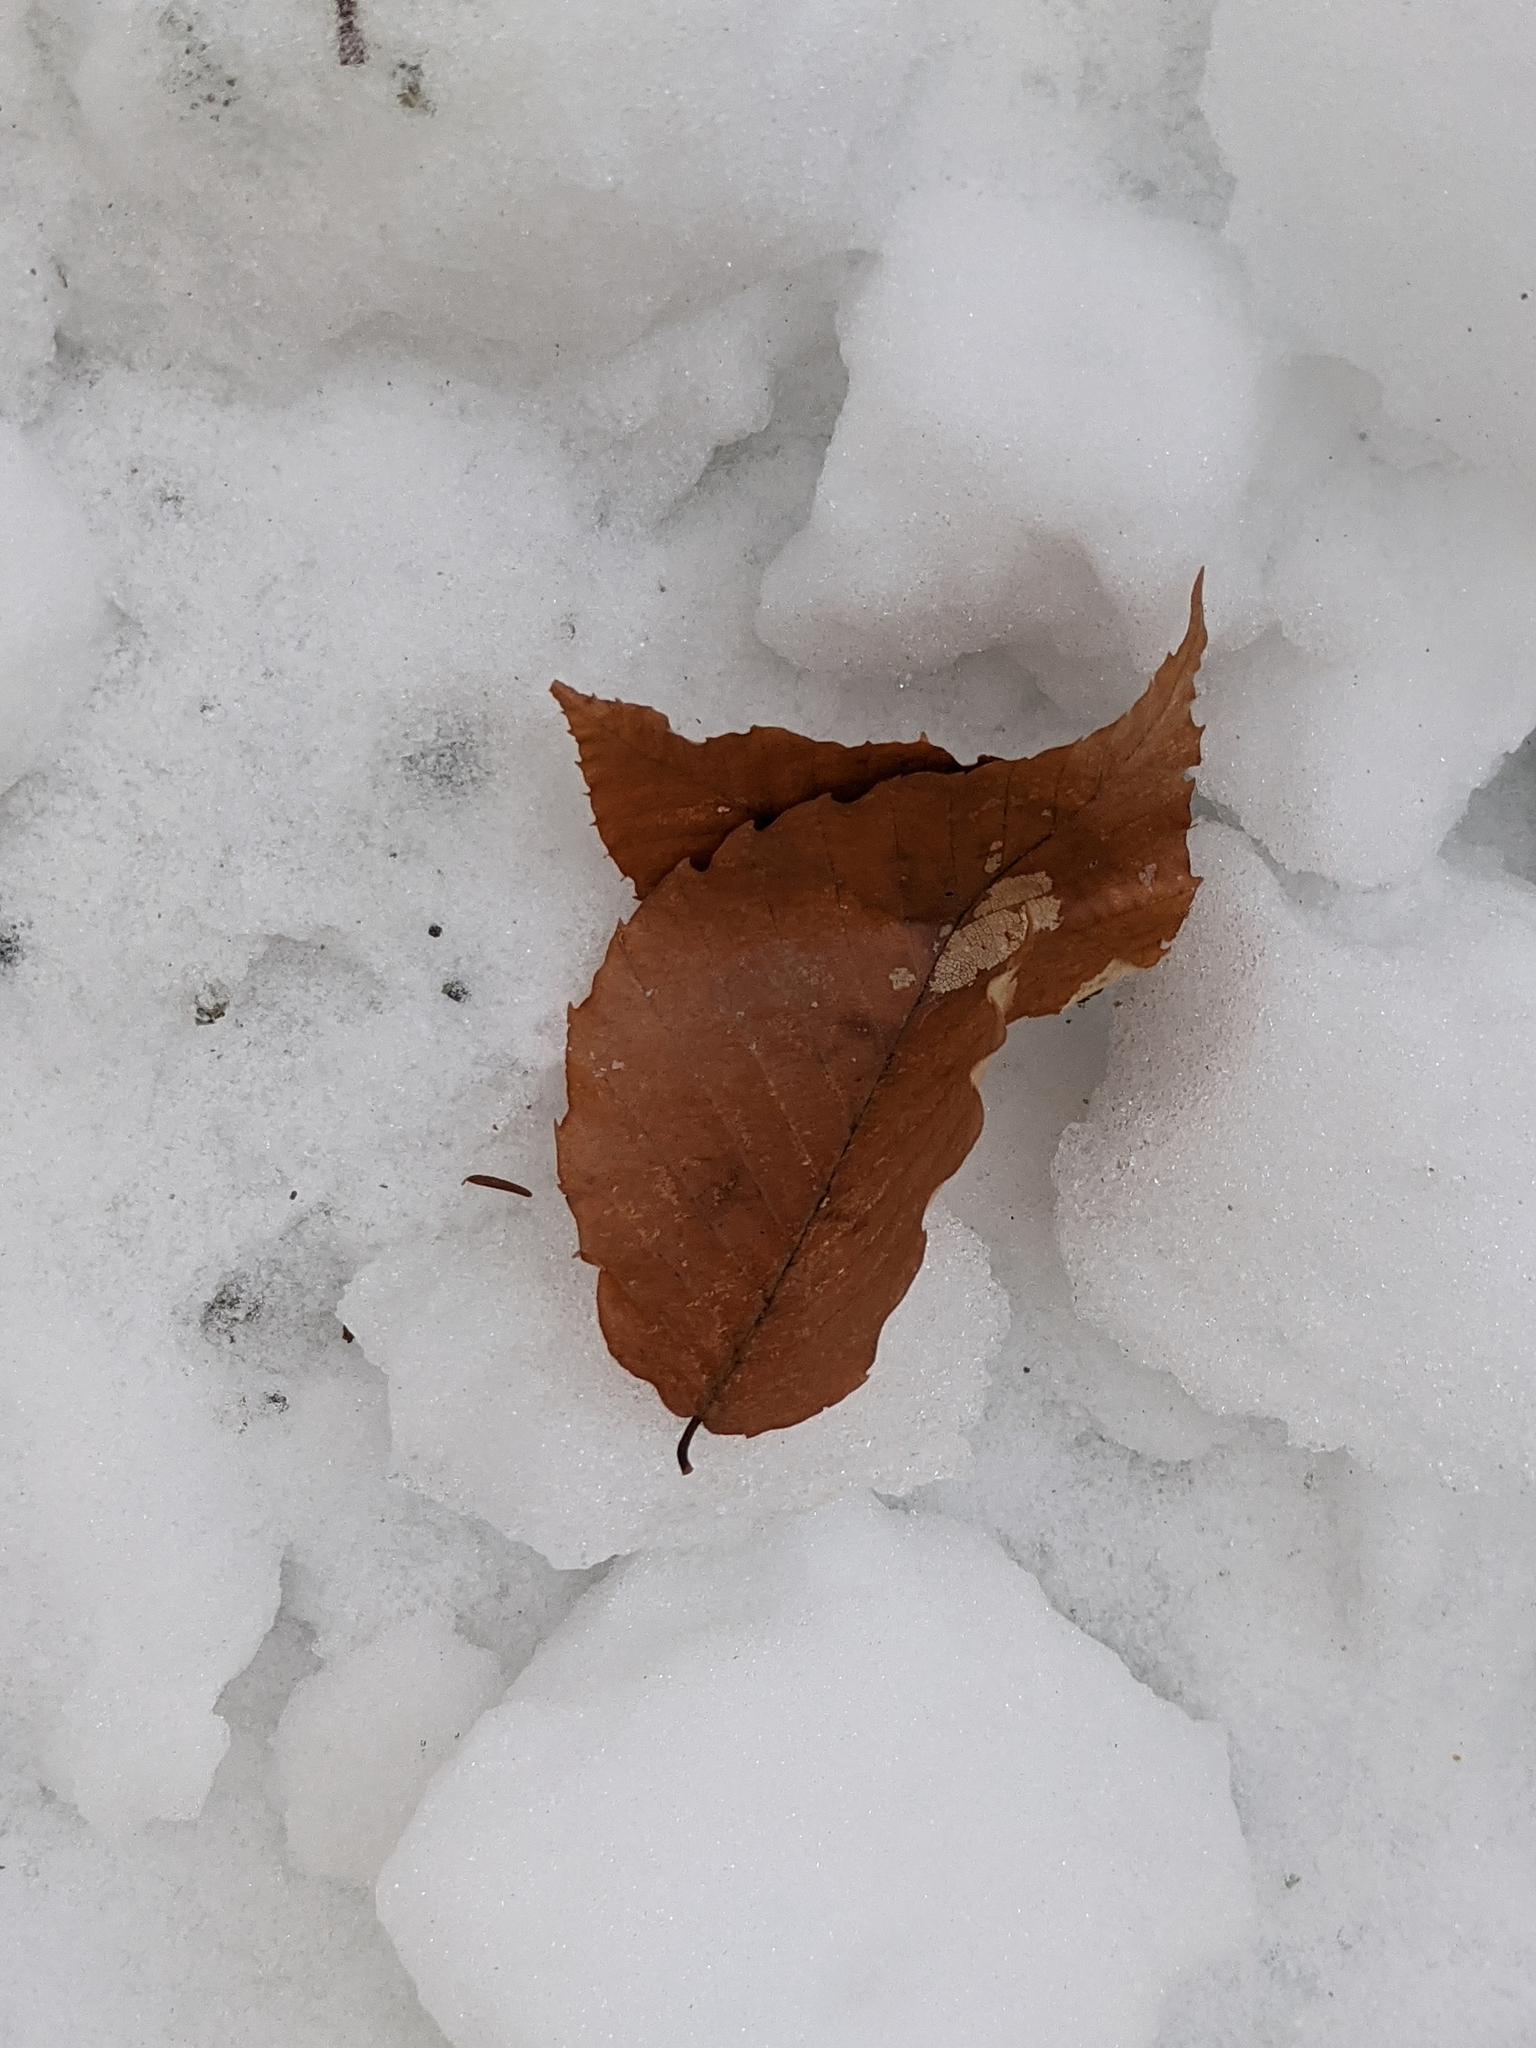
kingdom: Plantae
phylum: Tracheophyta
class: Magnoliopsida
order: Fagales
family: Fagaceae
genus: Fagus
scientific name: Fagus grandifolia
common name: American beech
